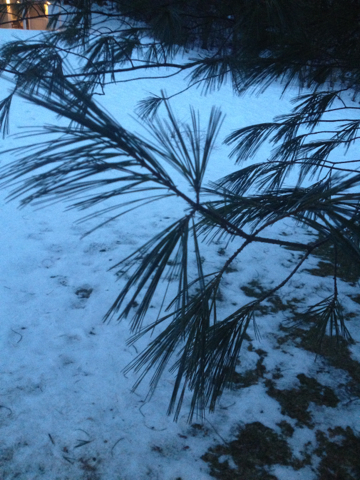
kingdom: Plantae
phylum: Tracheophyta
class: Pinopsida
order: Pinales
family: Pinaceae
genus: Pinus
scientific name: Pinus strobus
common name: Weymouth pine
